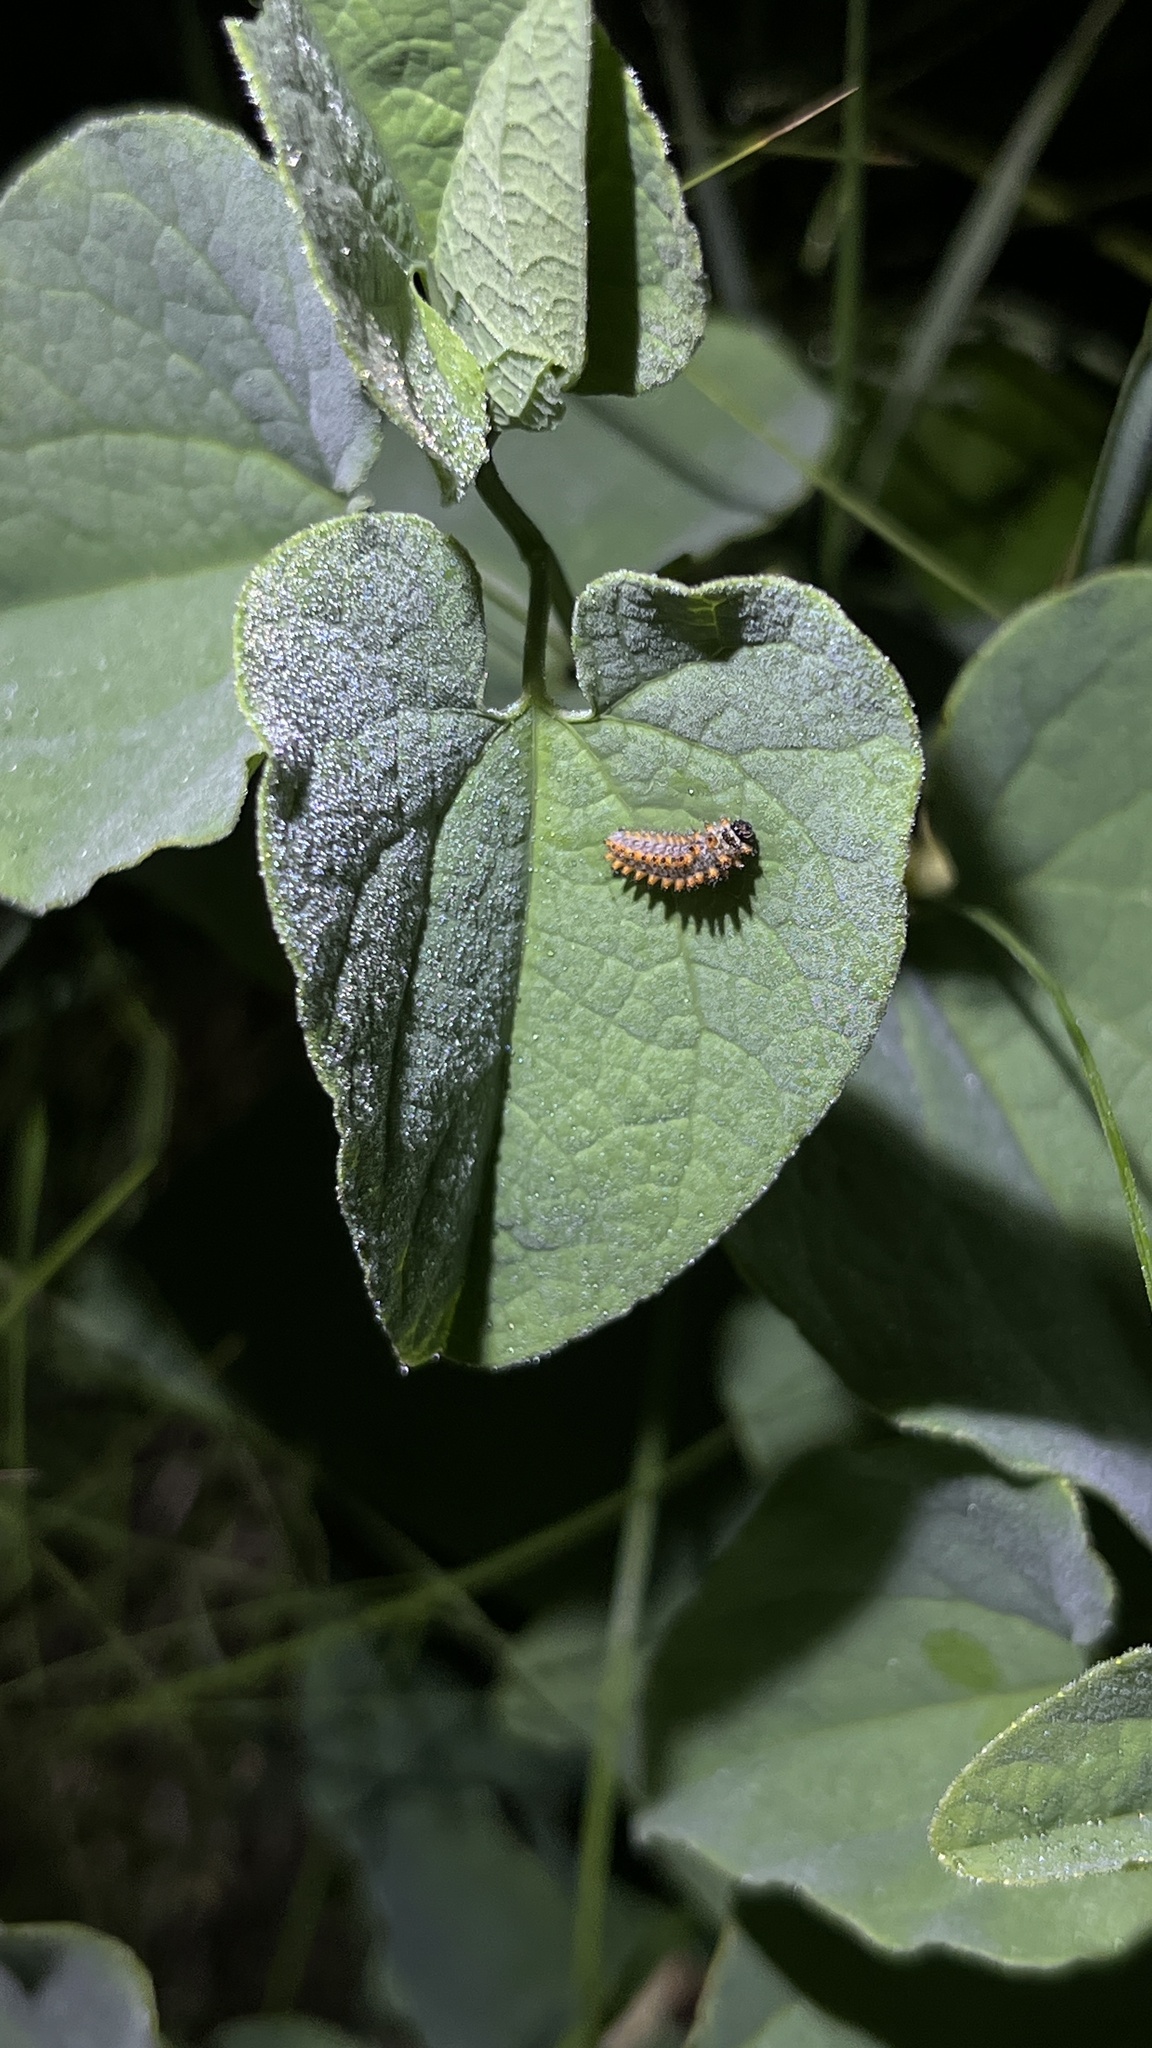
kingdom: Animalia
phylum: Arthropoda
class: Insecta
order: Lepidoptera
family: Papilionidae
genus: Zerynthia
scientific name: Zerynthia polyxena
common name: Southern festoon
